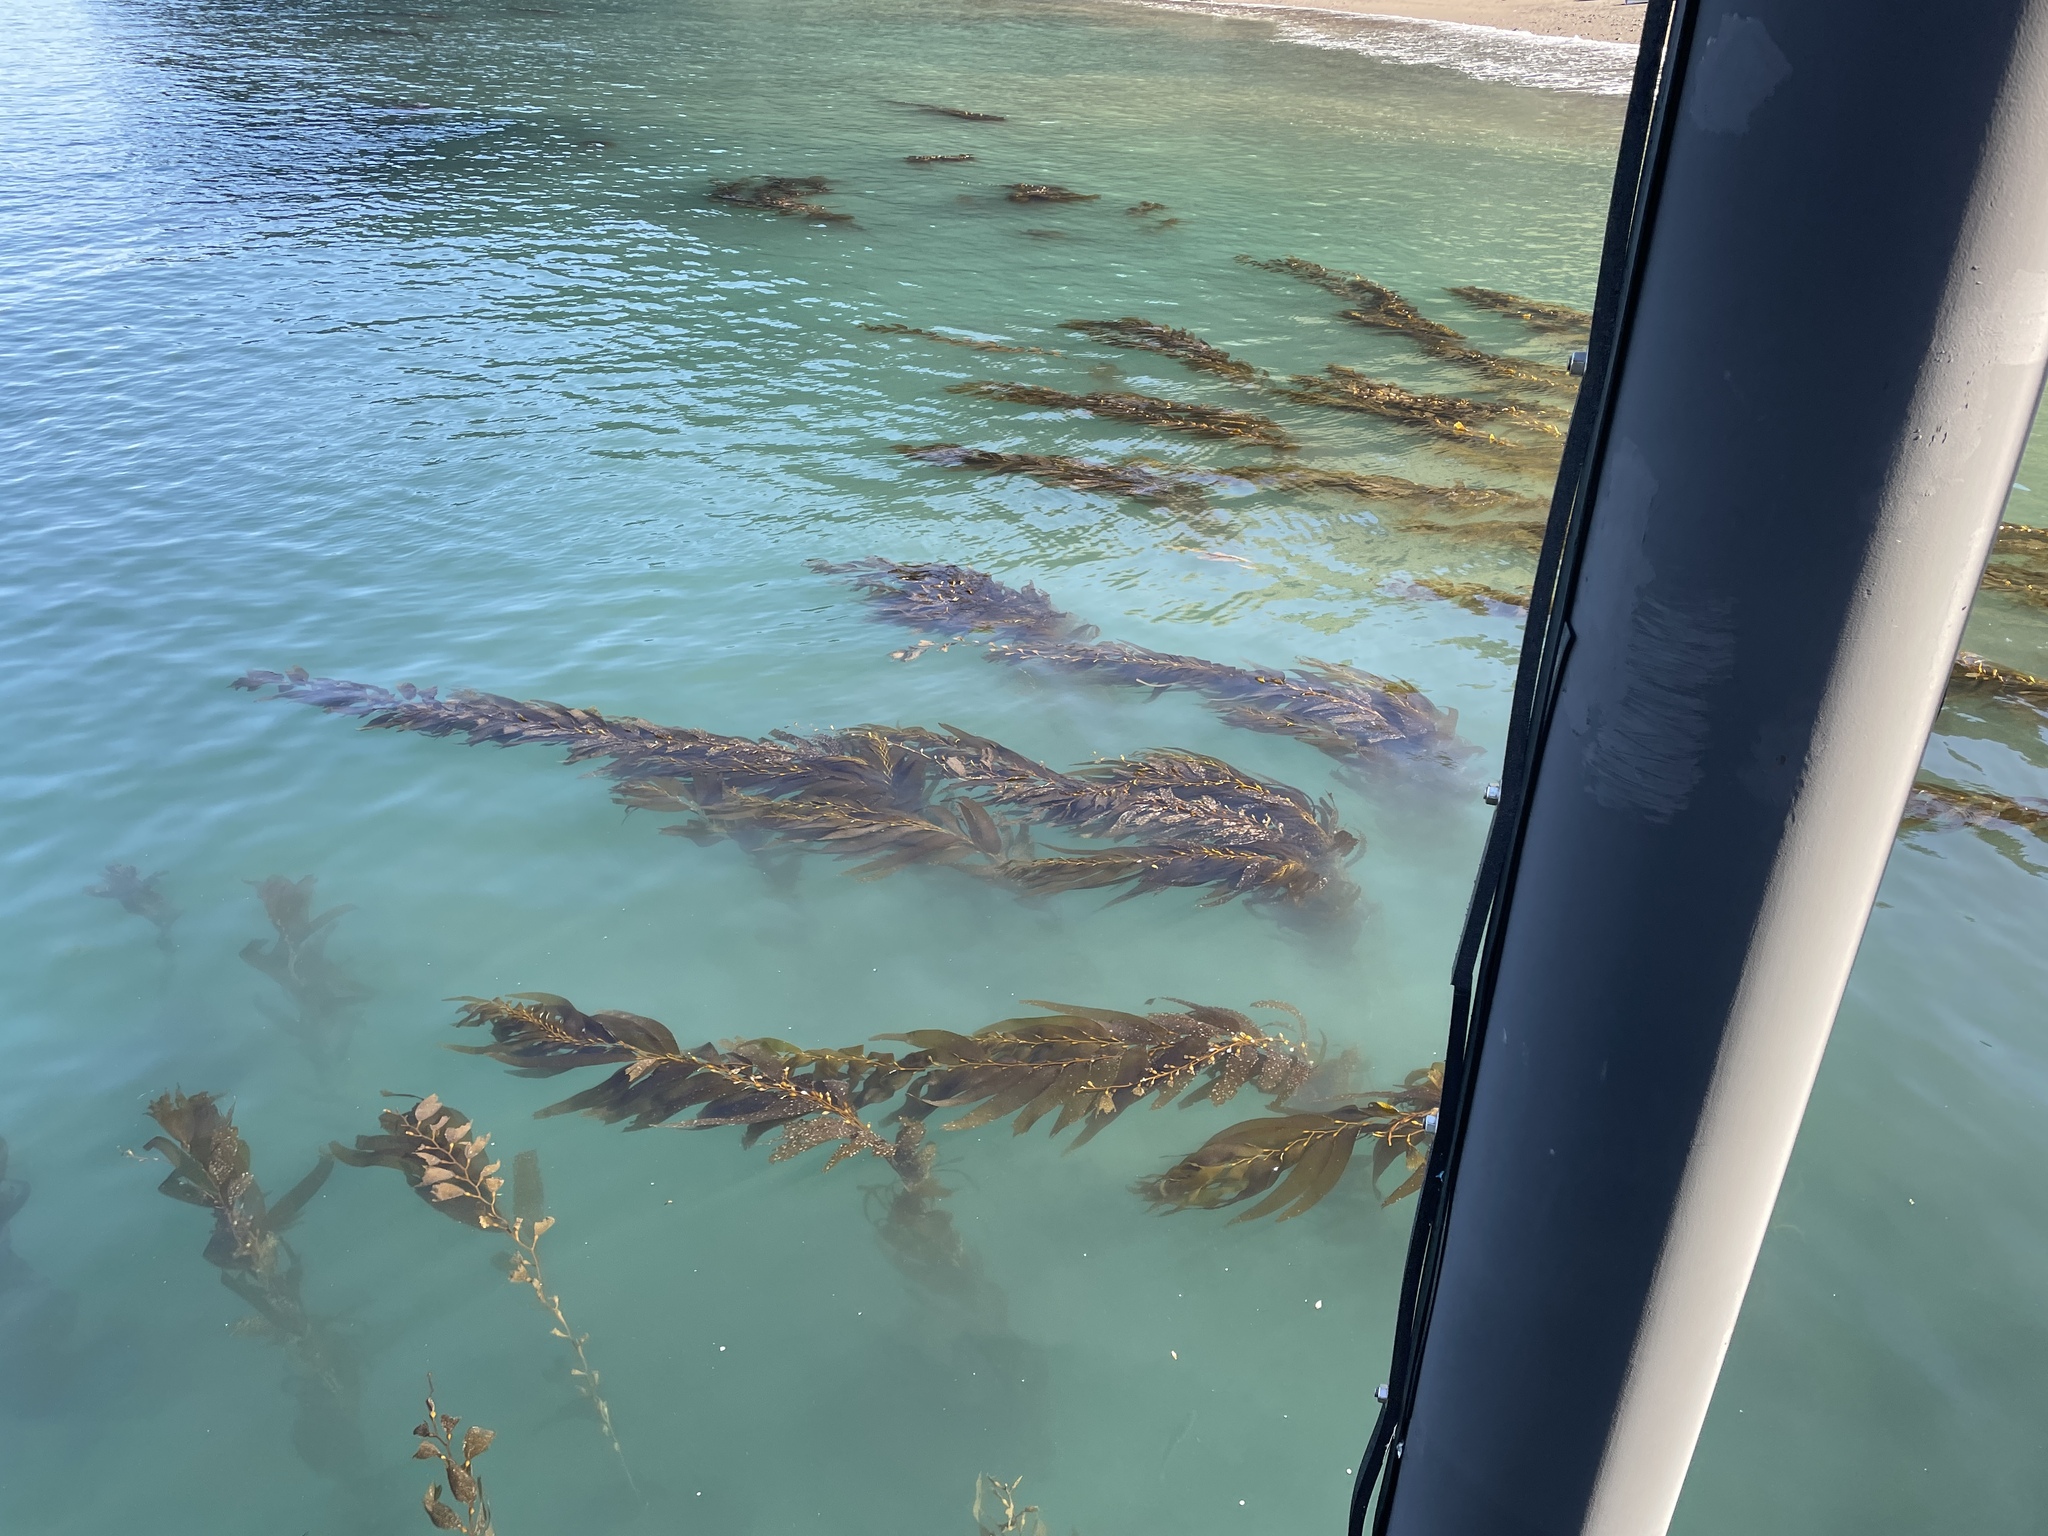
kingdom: Chromista
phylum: Ochrophyta
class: Phaeophyceae
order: Laminariales
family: Laminariaceae
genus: Macrocystis
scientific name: Macrocystis pyrifera
